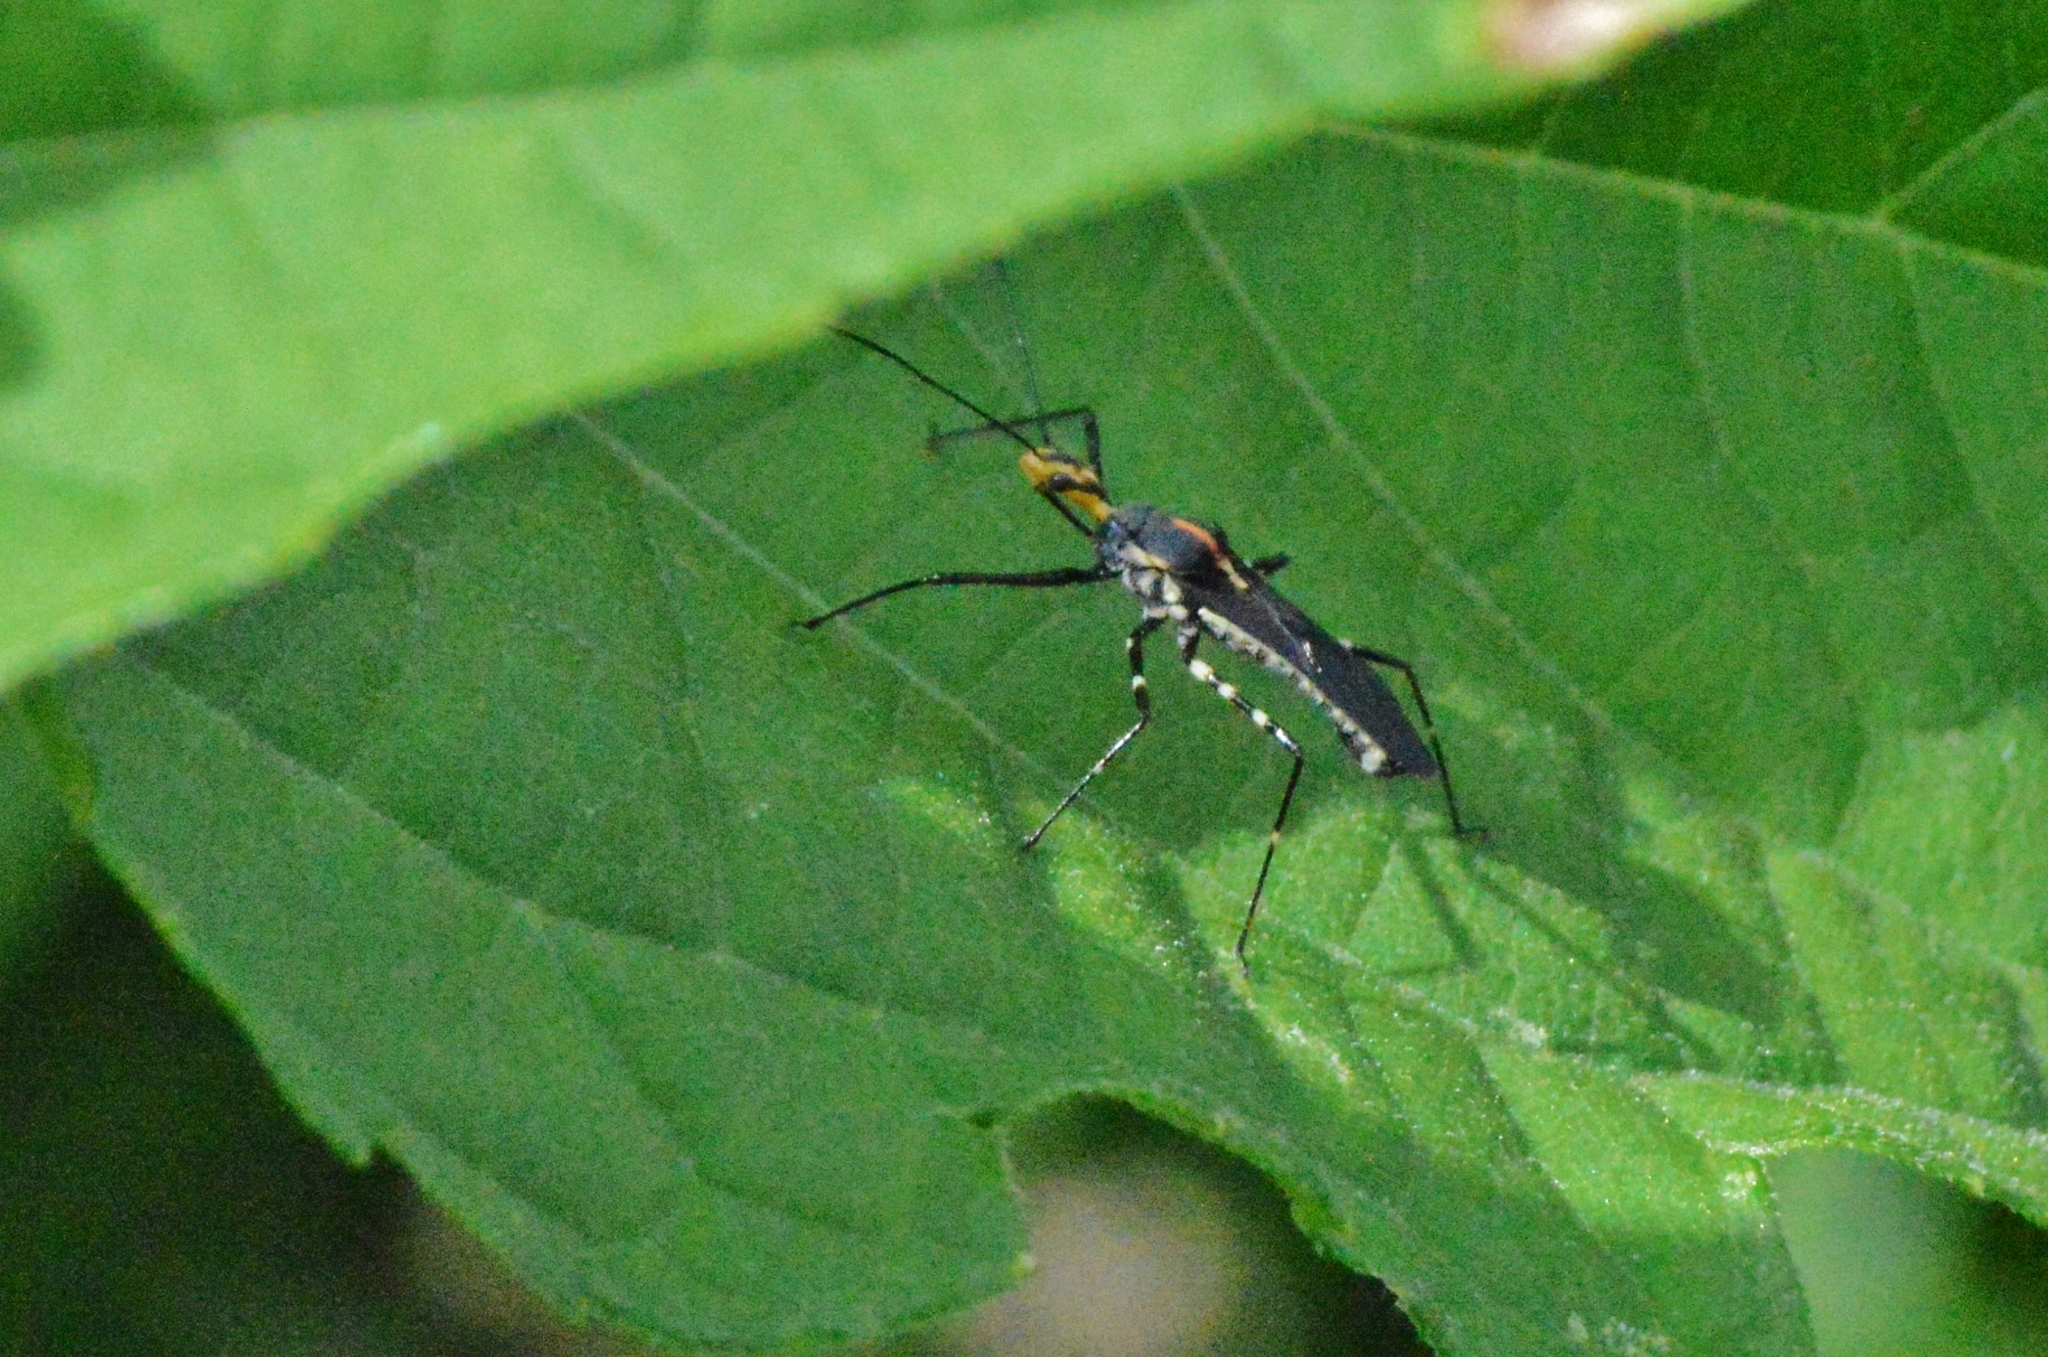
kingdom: Animalia
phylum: Arthropoda
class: Insecta
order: Hemiptera
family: Reduviidae
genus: Zelus
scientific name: Zelus laticornis
